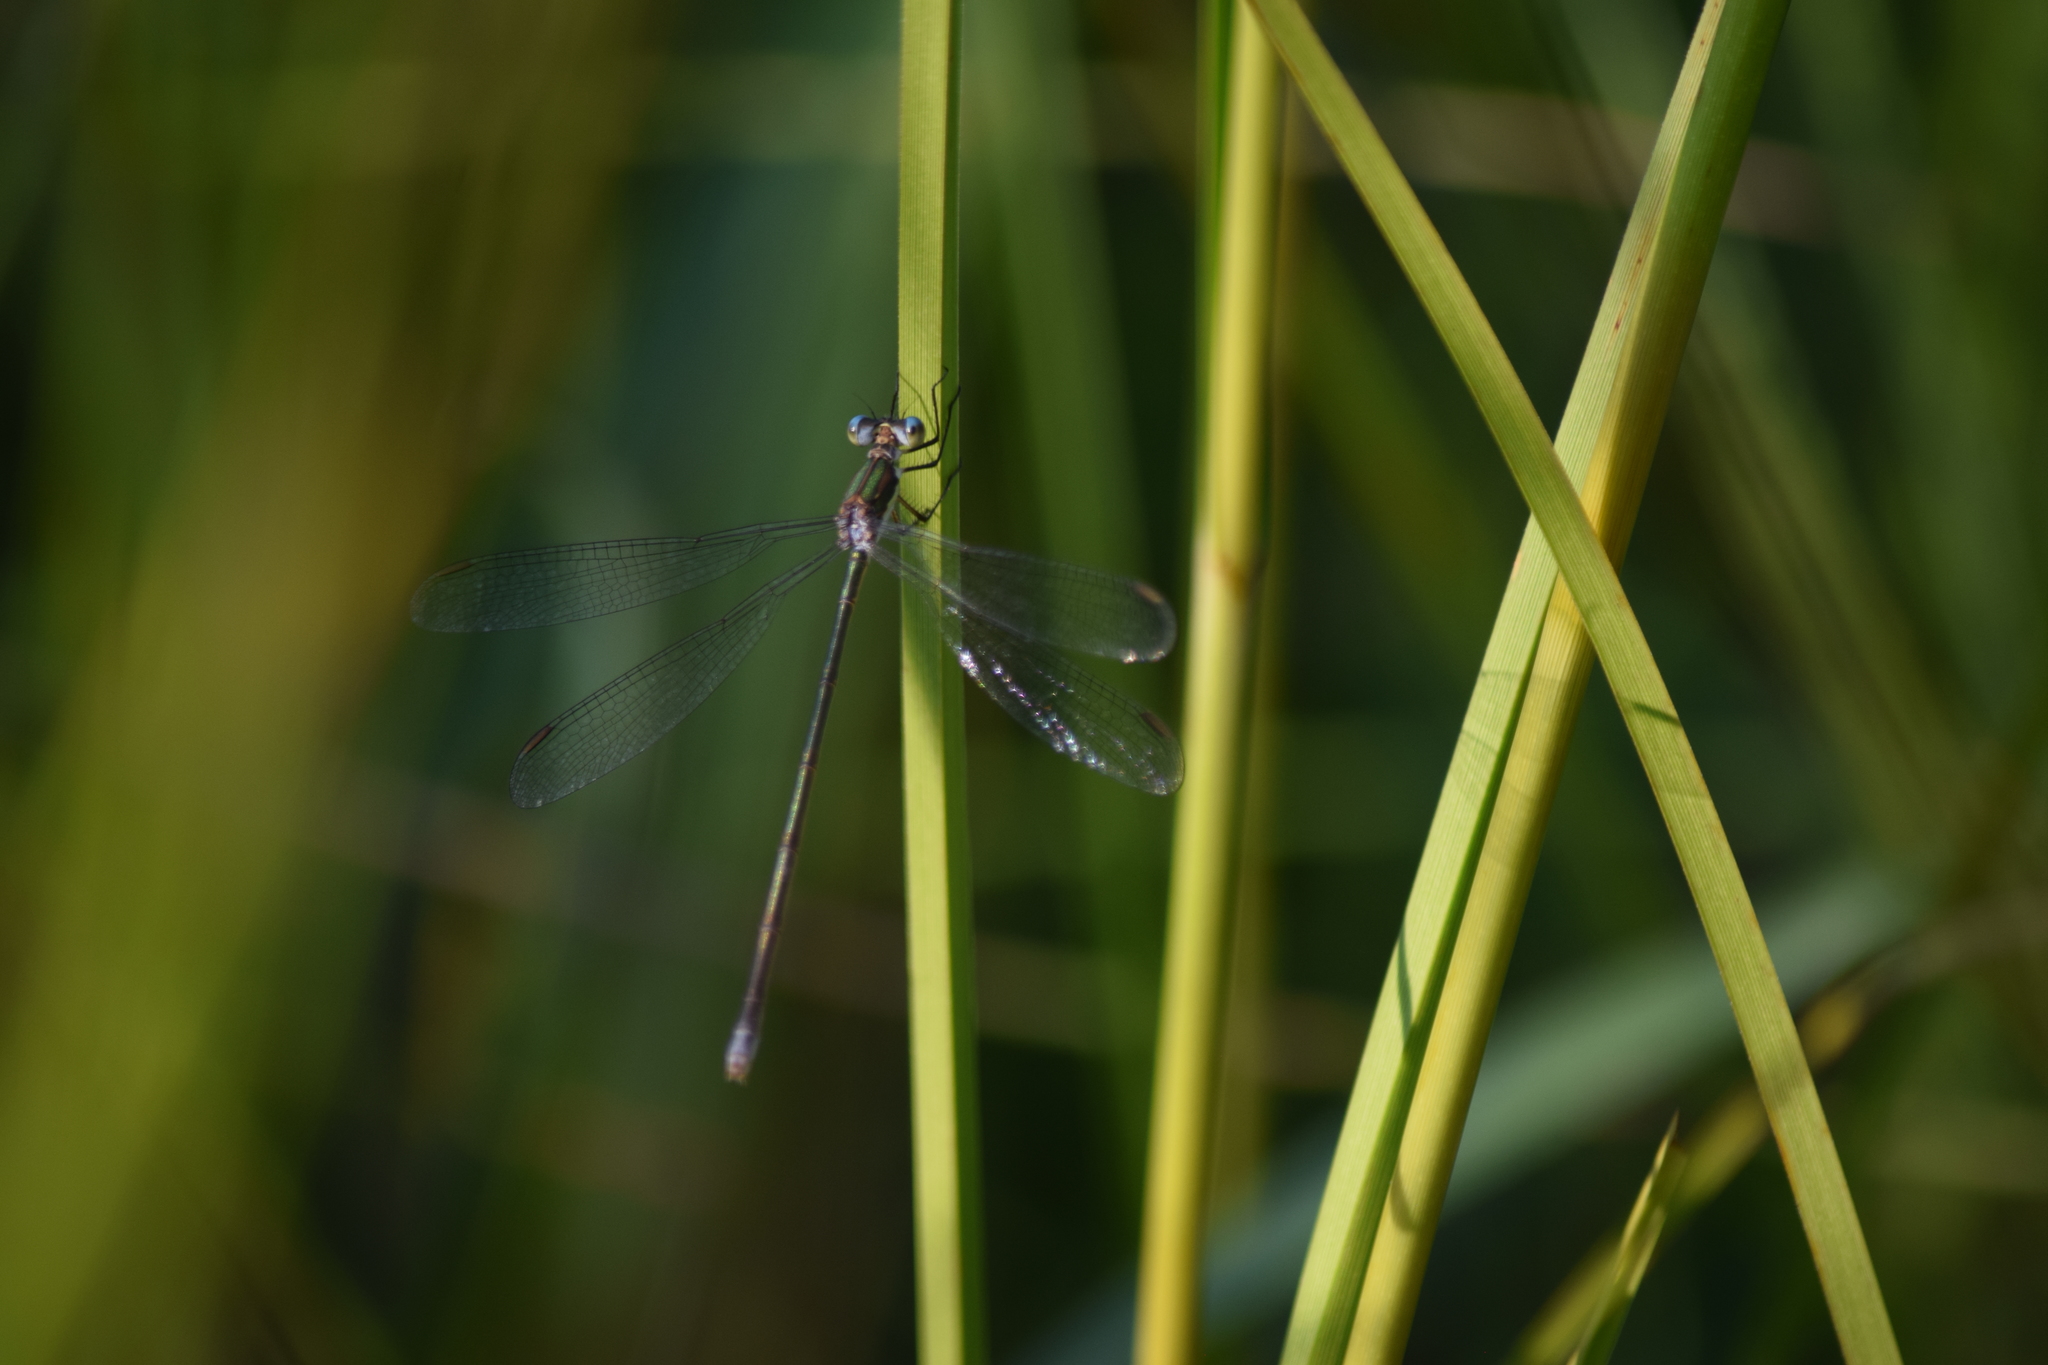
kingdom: Animalia
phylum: Arthropoda
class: Insecta
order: Odonata
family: Lestidae
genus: Lestes
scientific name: Lestes vigilax
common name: Swamp spreadwing
